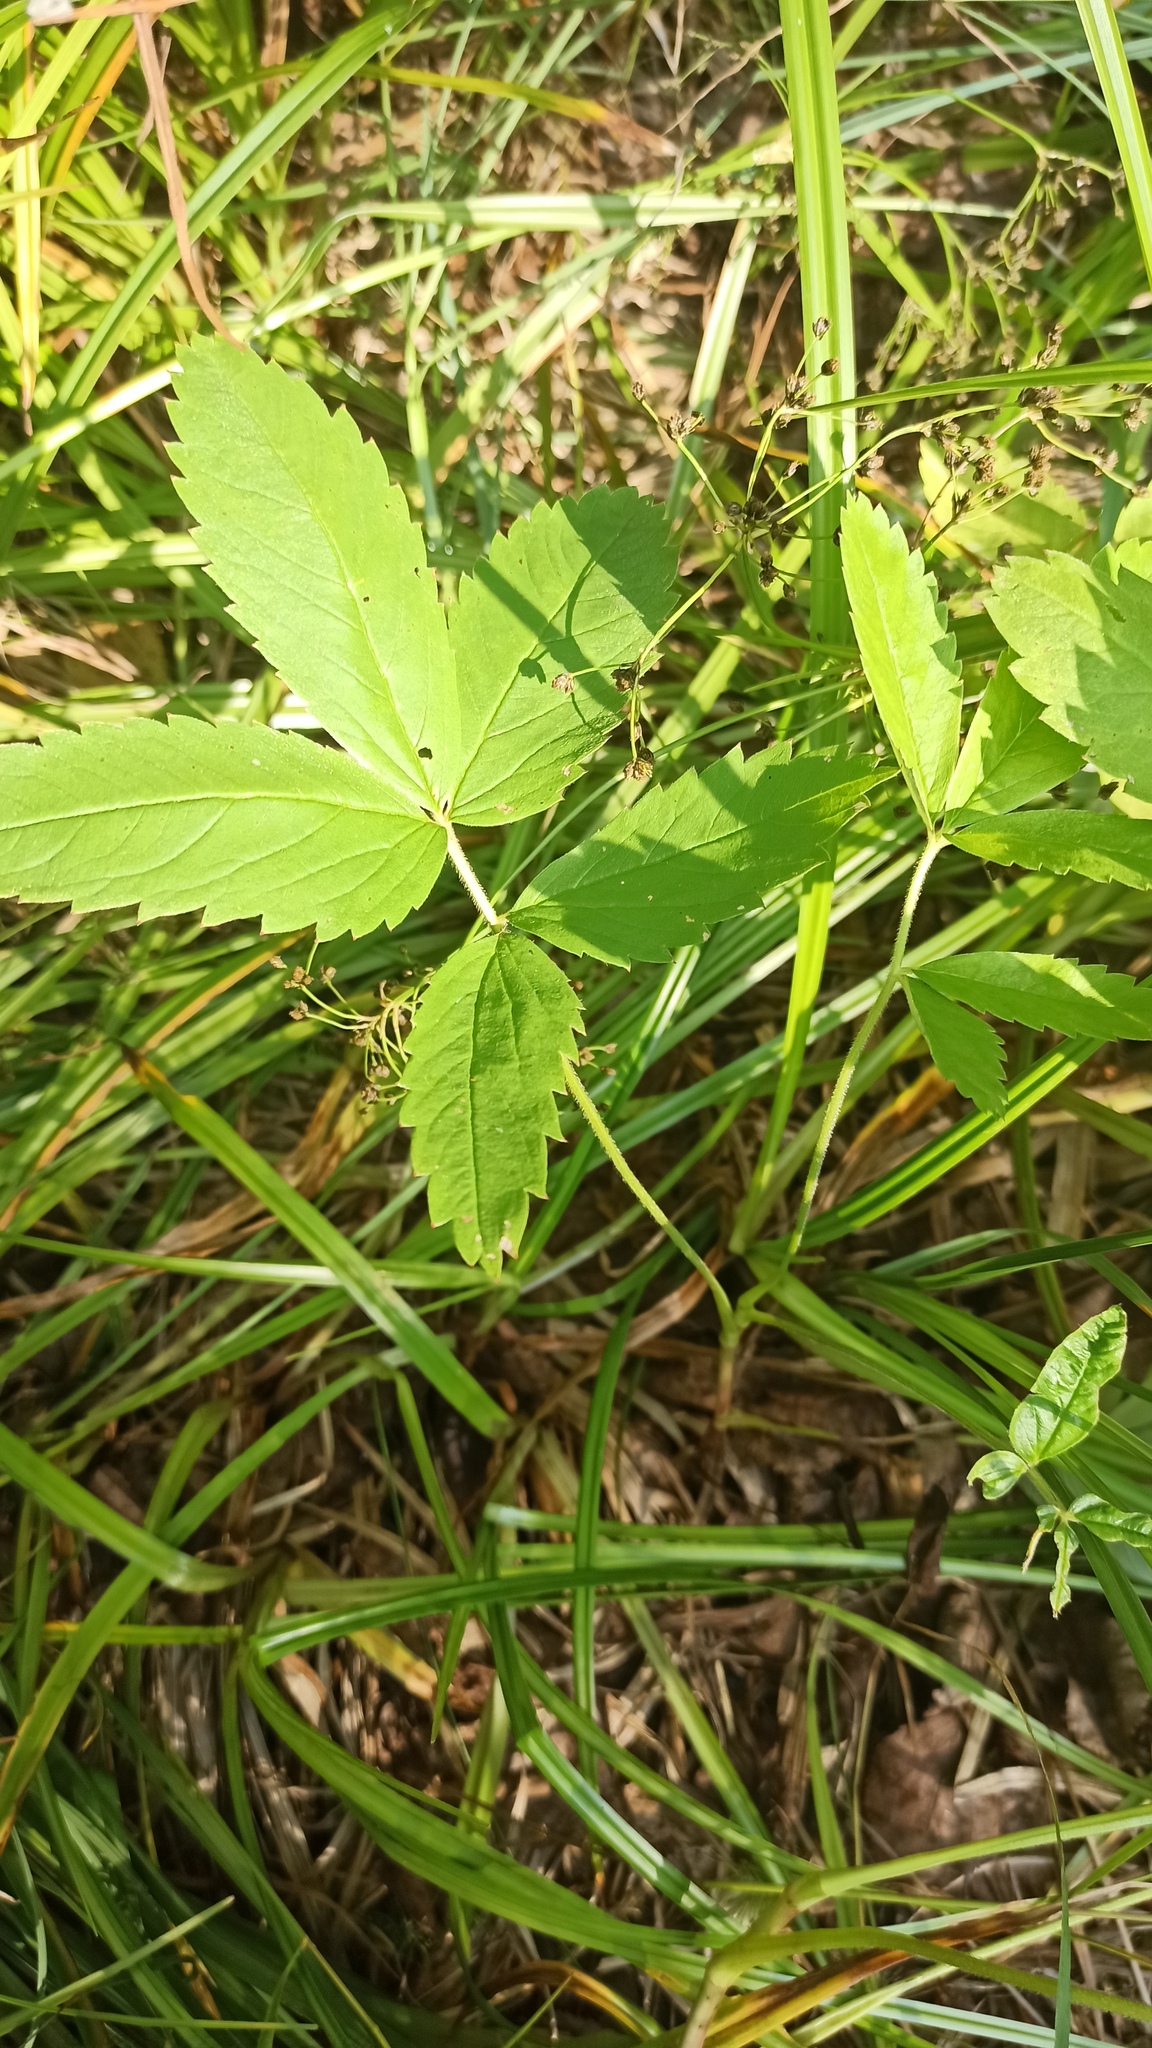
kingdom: Plantae
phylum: Tracheophyta
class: Magnoliopsida
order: Rosales
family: Rosaceae
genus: Comarum
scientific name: Comarum palustre
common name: Marsh cinquefoil
